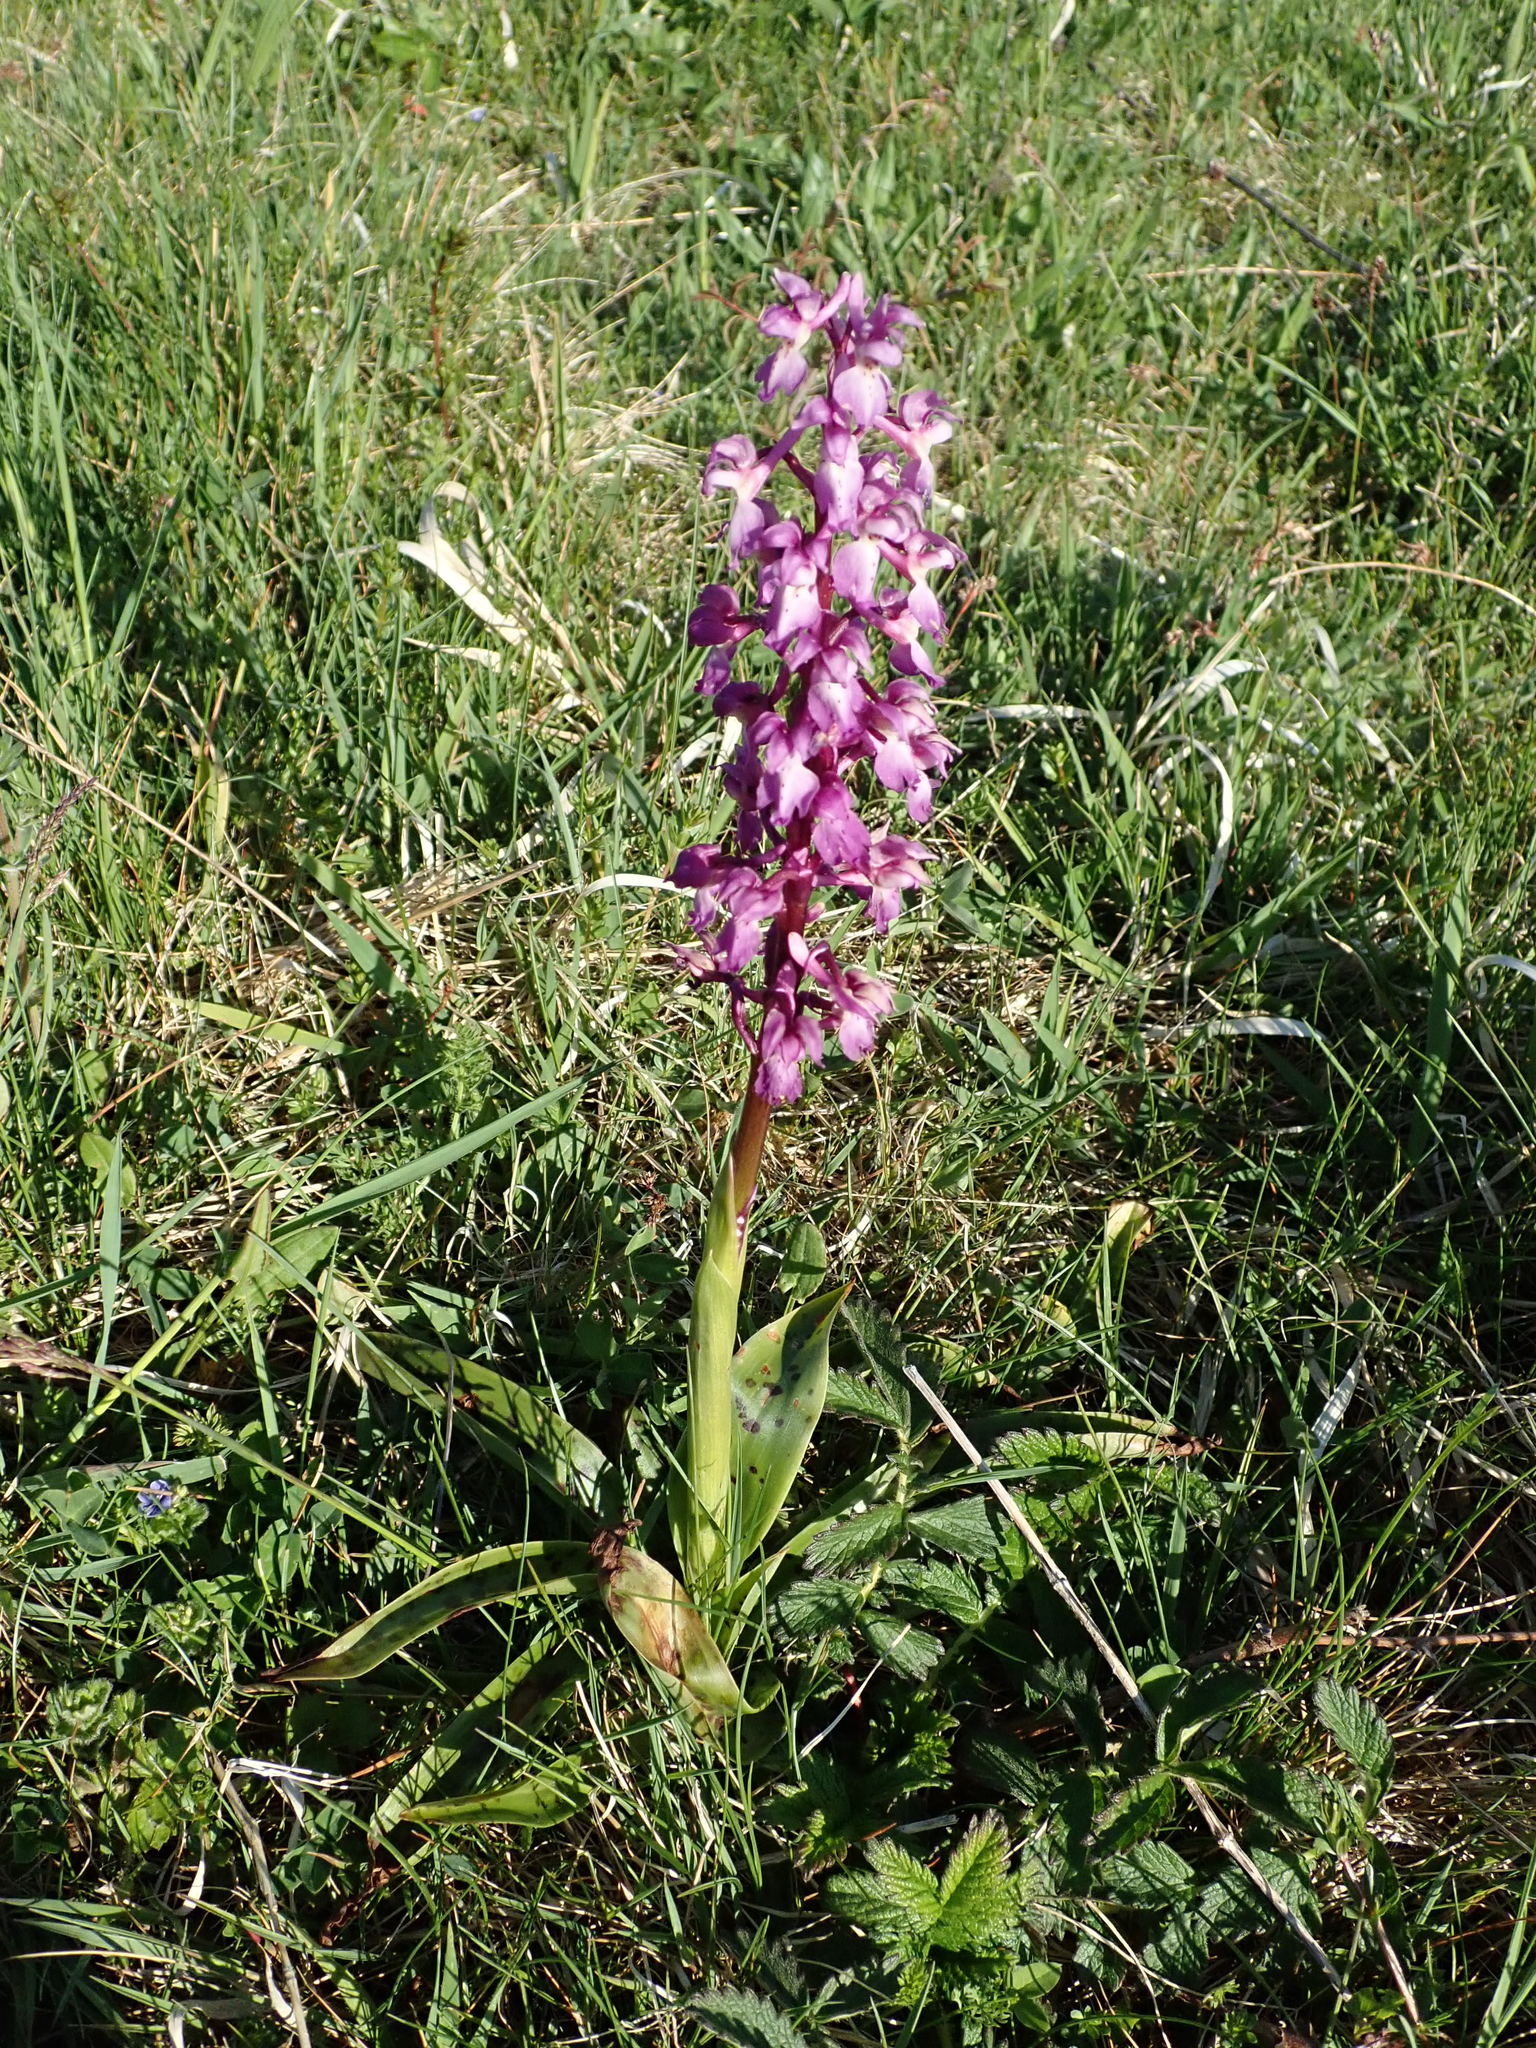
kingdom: Plantae
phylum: Tracheophyta
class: Liliopsida
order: Asparagales
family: Orchidaceae
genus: Orchis
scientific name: Orchis mascula
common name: Early-purple orchid
